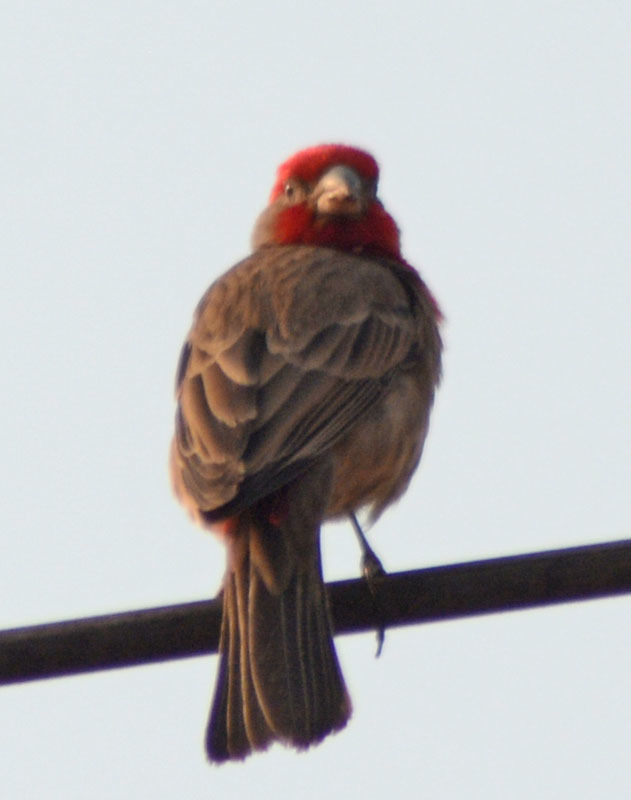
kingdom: Animalia
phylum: Chordata
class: Aves
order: Passeriformes
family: Fringillidae
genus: Haemorhous
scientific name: Haemorhous mexicanus
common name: House finch
